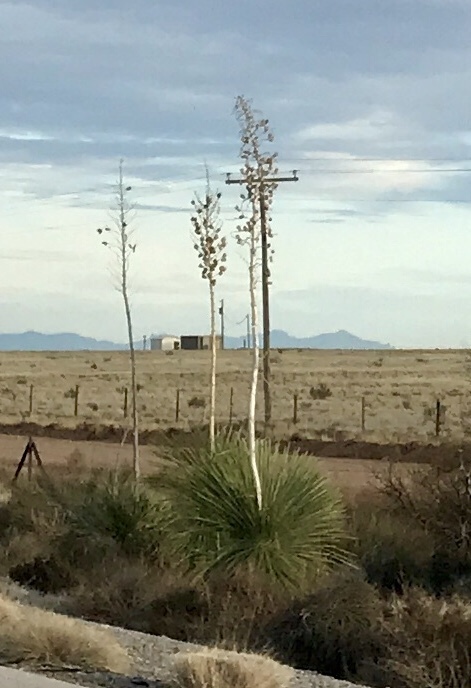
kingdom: Plantae
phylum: Tracheophyta
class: Liliopsida
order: Asparagales
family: Asparagaceae
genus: Yucca
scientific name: Yucca elata
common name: Palmella
